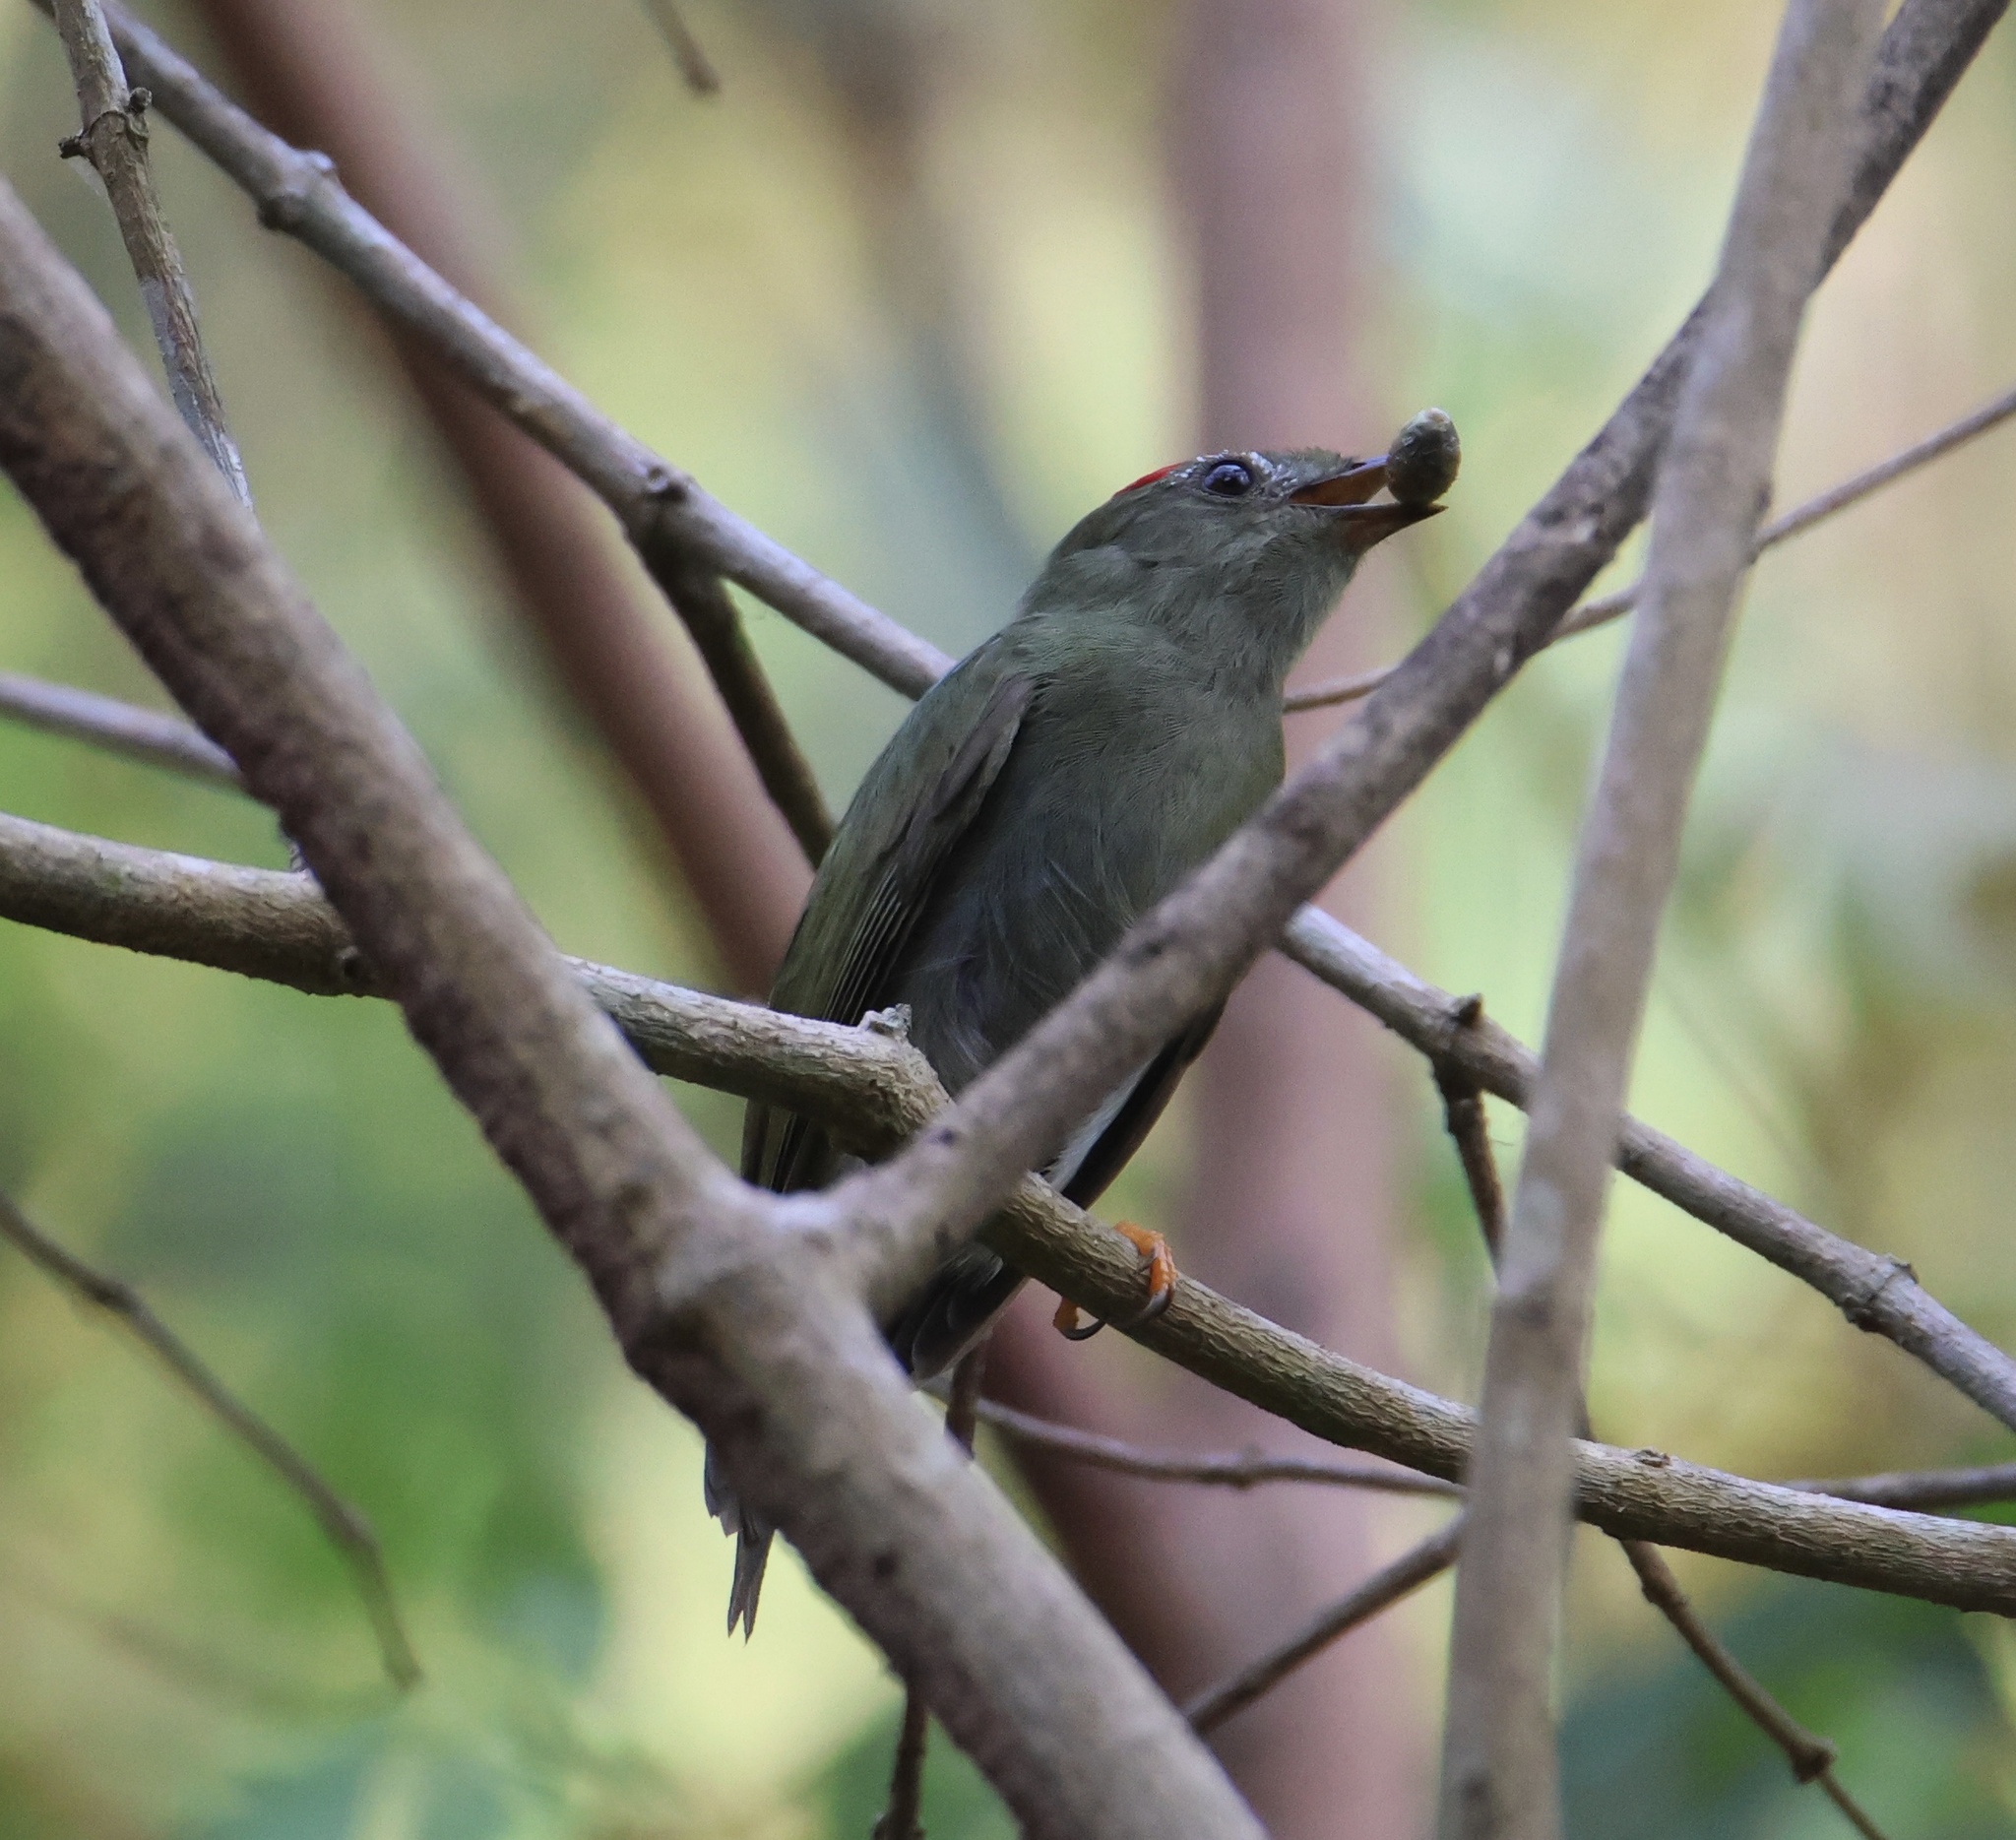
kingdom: Animalia
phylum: Chordata
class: Aves
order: Passeriformes
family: Pipridae
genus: Chiroxiphia
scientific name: Chiroxiphia lanceolata
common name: Lance-tailed manakin
